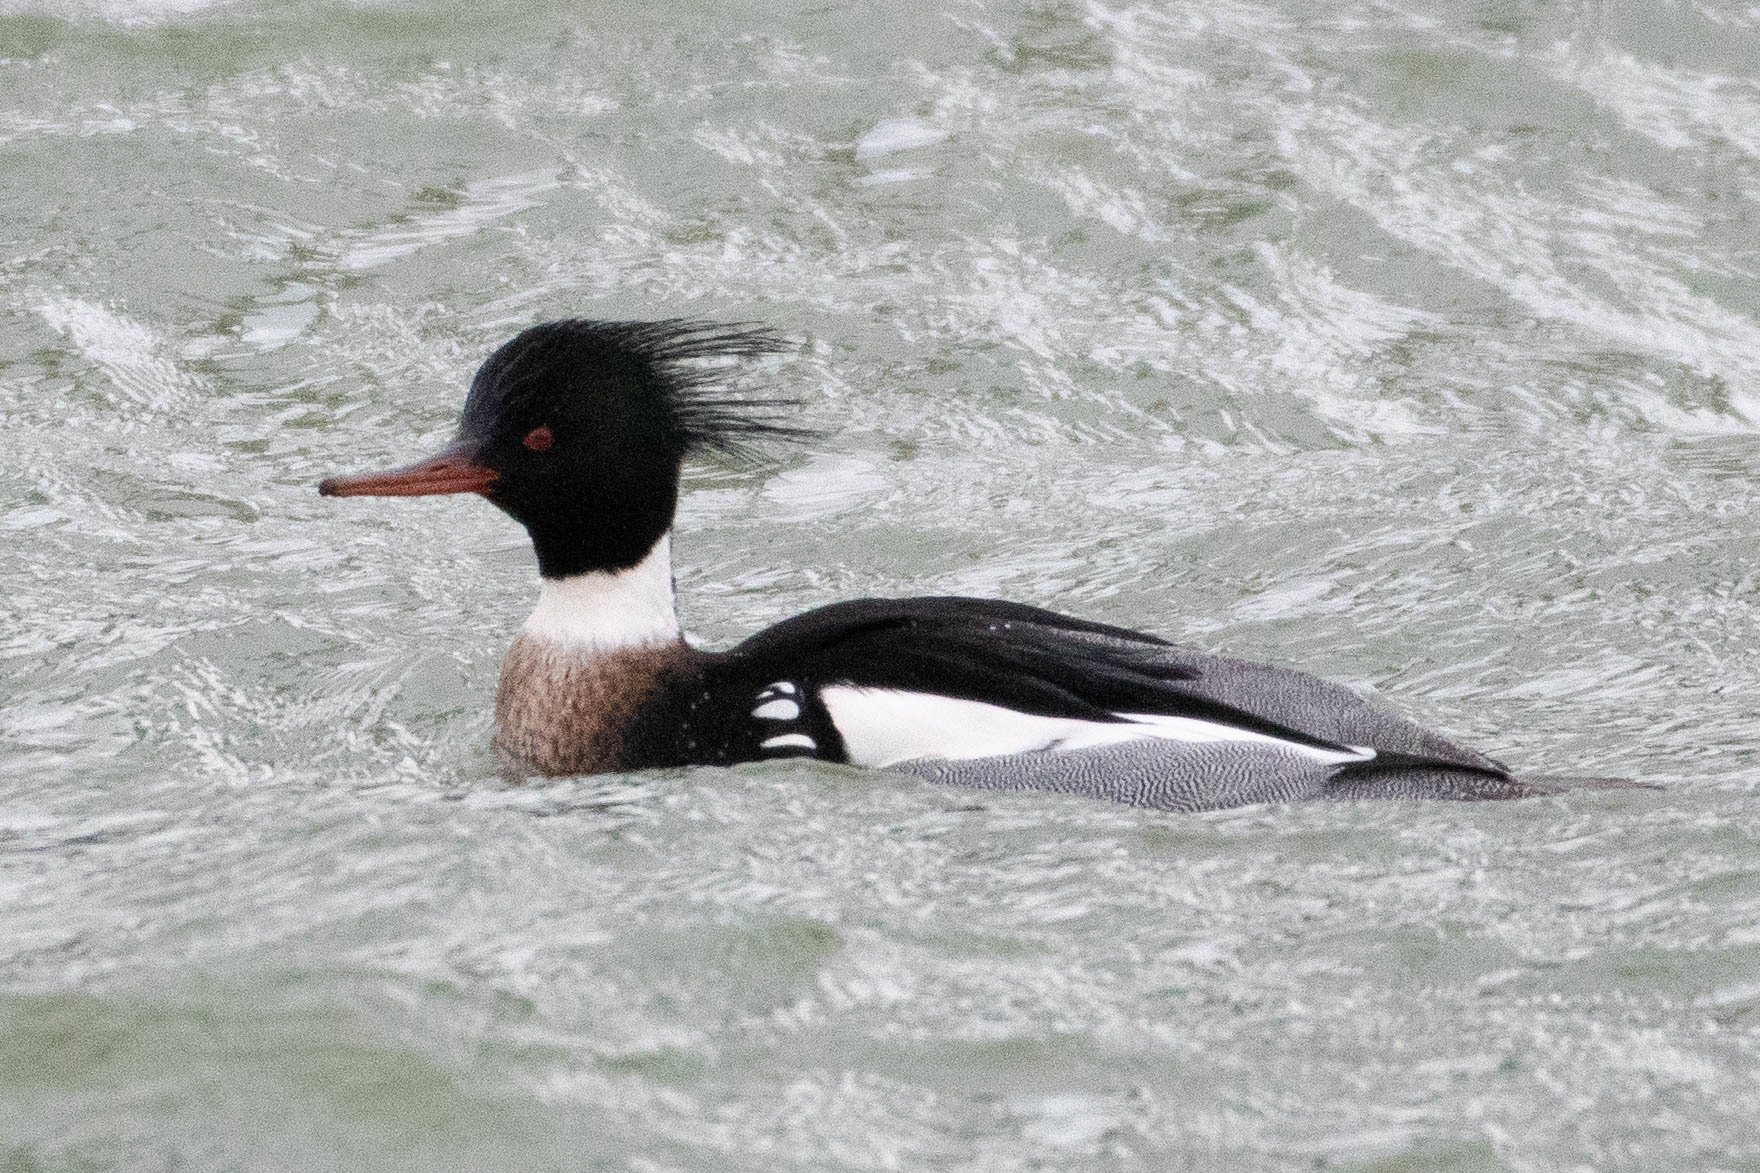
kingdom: Animalia
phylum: Chordata
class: Aves
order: Anseriformes
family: Anatidae
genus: Mergus
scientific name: Mergus serrator
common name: Red-breasted merganser
